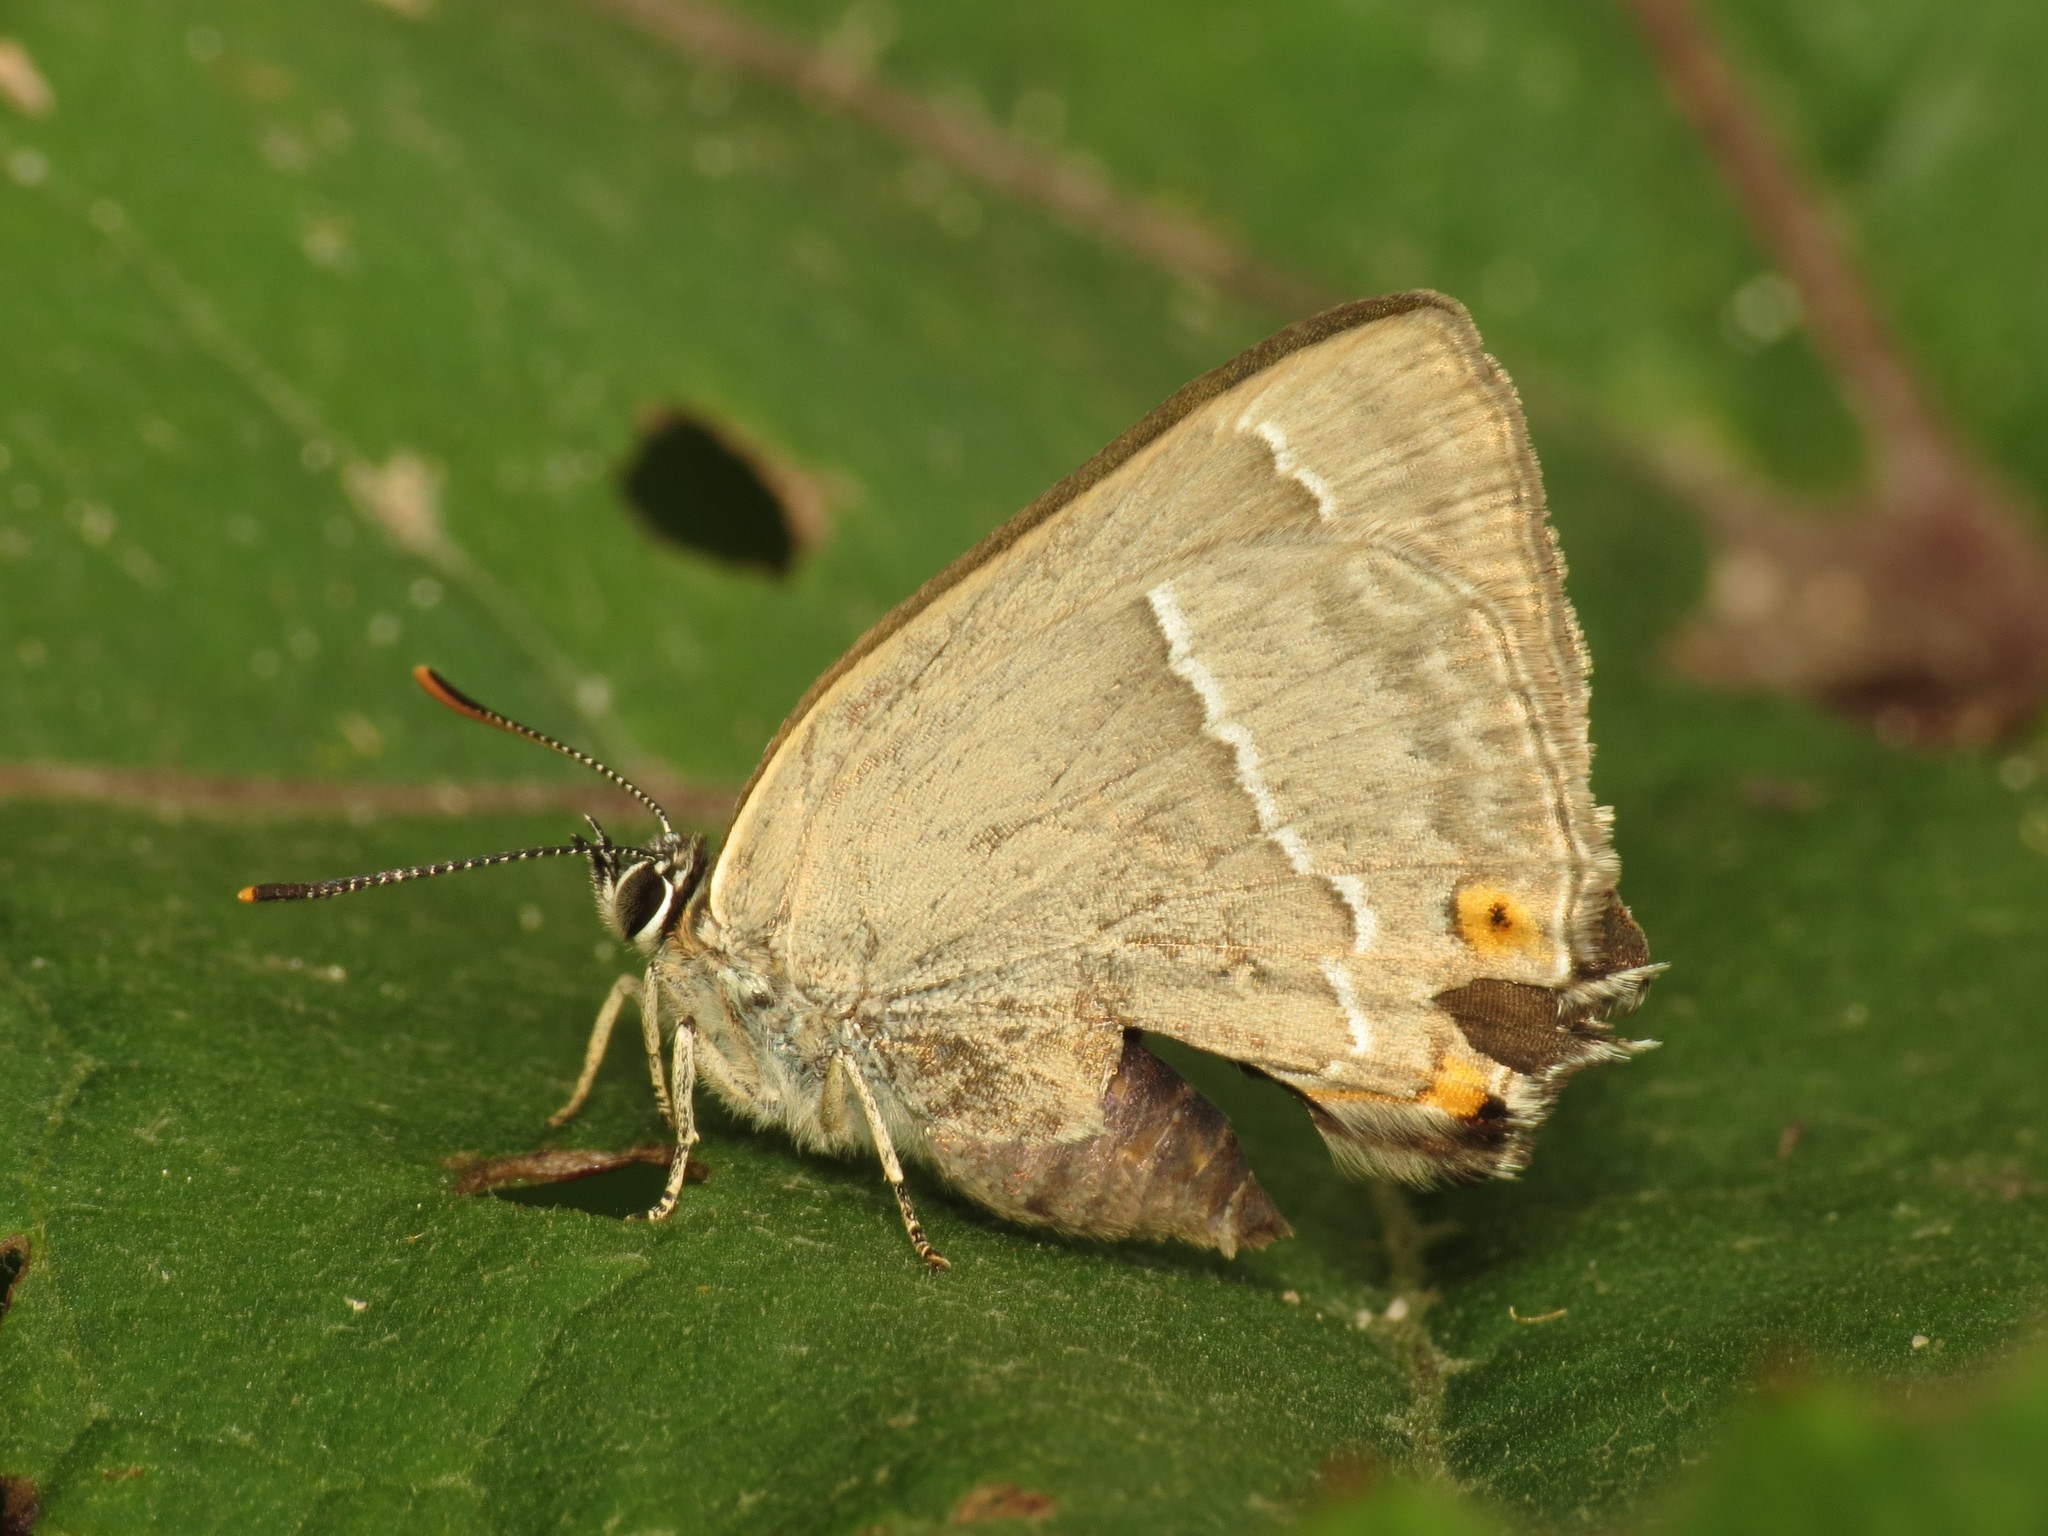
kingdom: Animalia
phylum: Arthropoda
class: Insecta
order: Lepidoptera
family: Lycaenidae
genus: Quercusia
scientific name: Quercusia quercus
